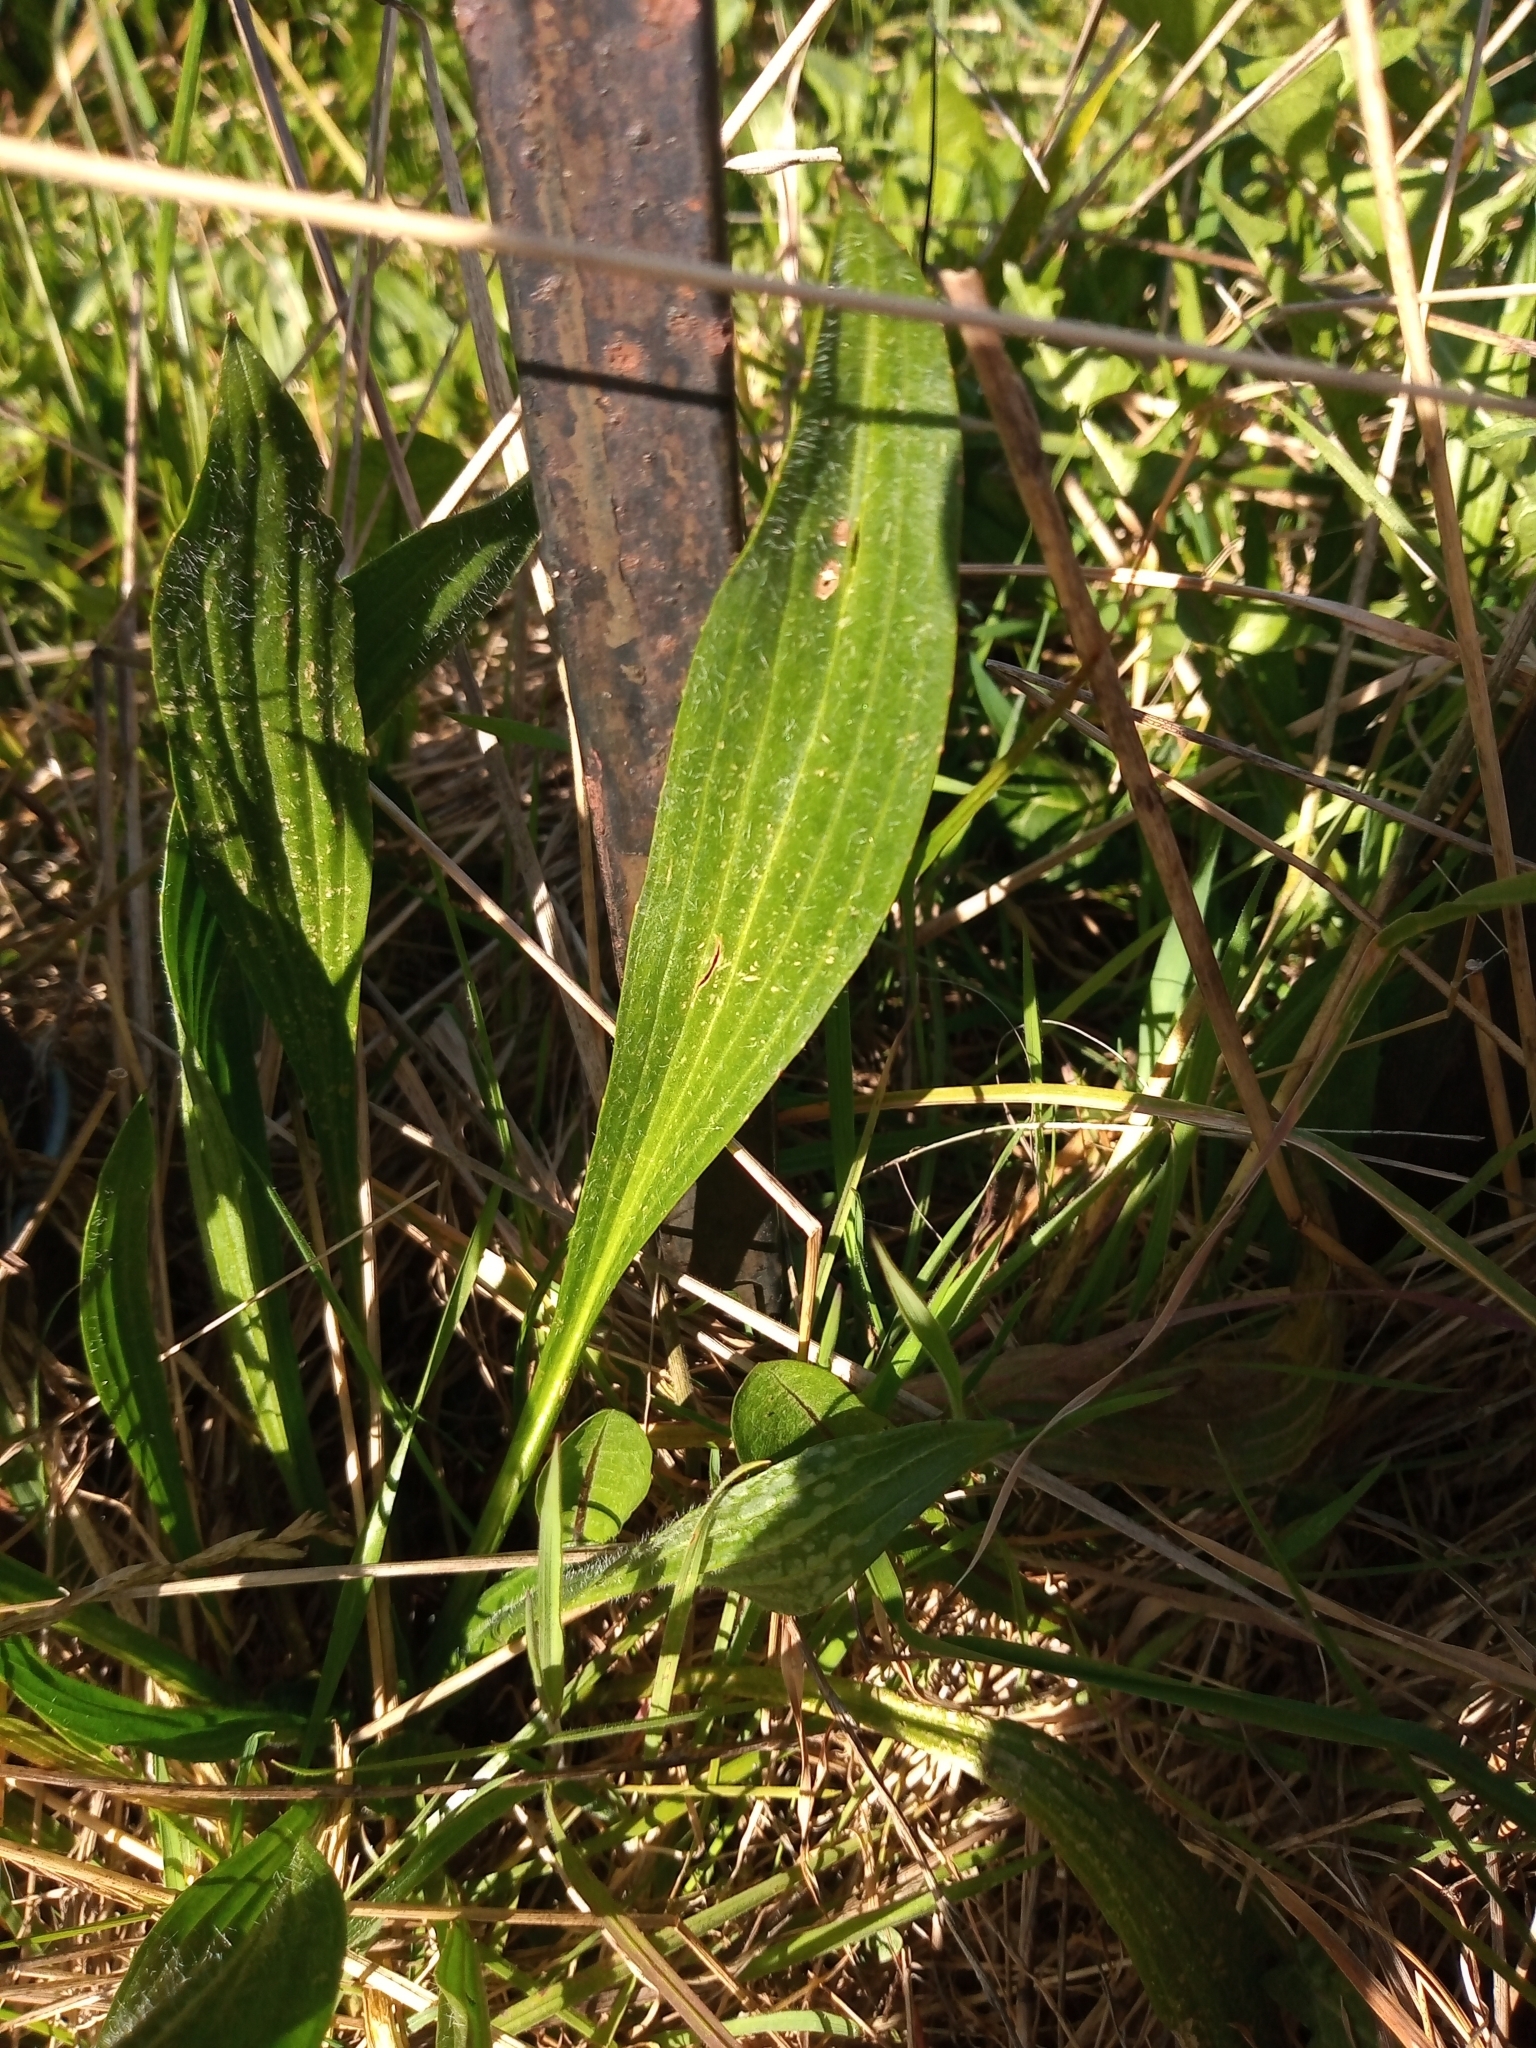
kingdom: Plantae
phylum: Tracheophyta
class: Magnoliopsida
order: Lamiales
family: Plantaginaceae
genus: Plantago
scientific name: Plantago lanceolata
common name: Ribwort plantain
